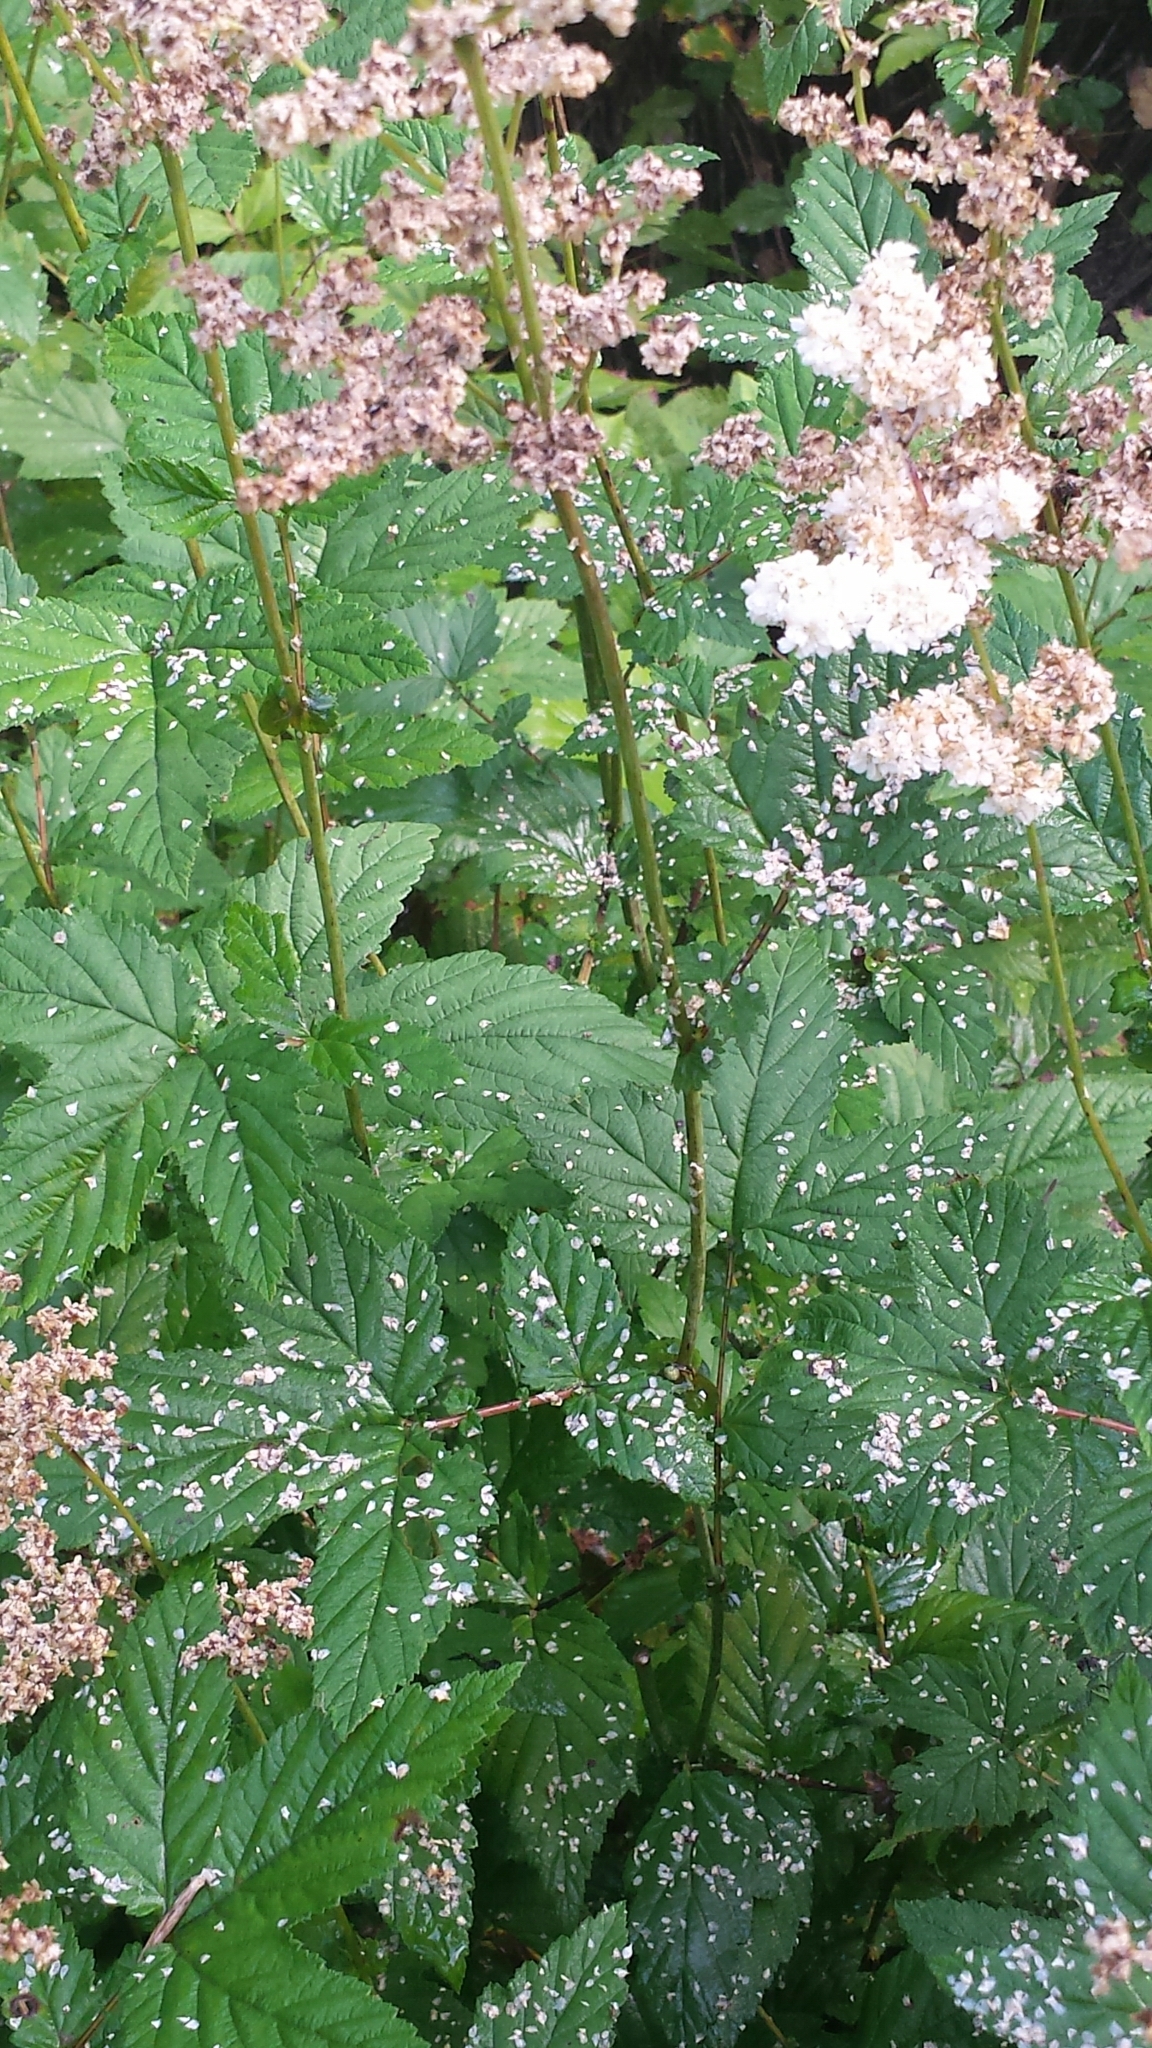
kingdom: Plantae
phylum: Tracheophyta
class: Magnoliopsida
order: Rosales
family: Rosaceae
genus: Filipendula
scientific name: Filipendula ulmaria
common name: Meadowsweet
